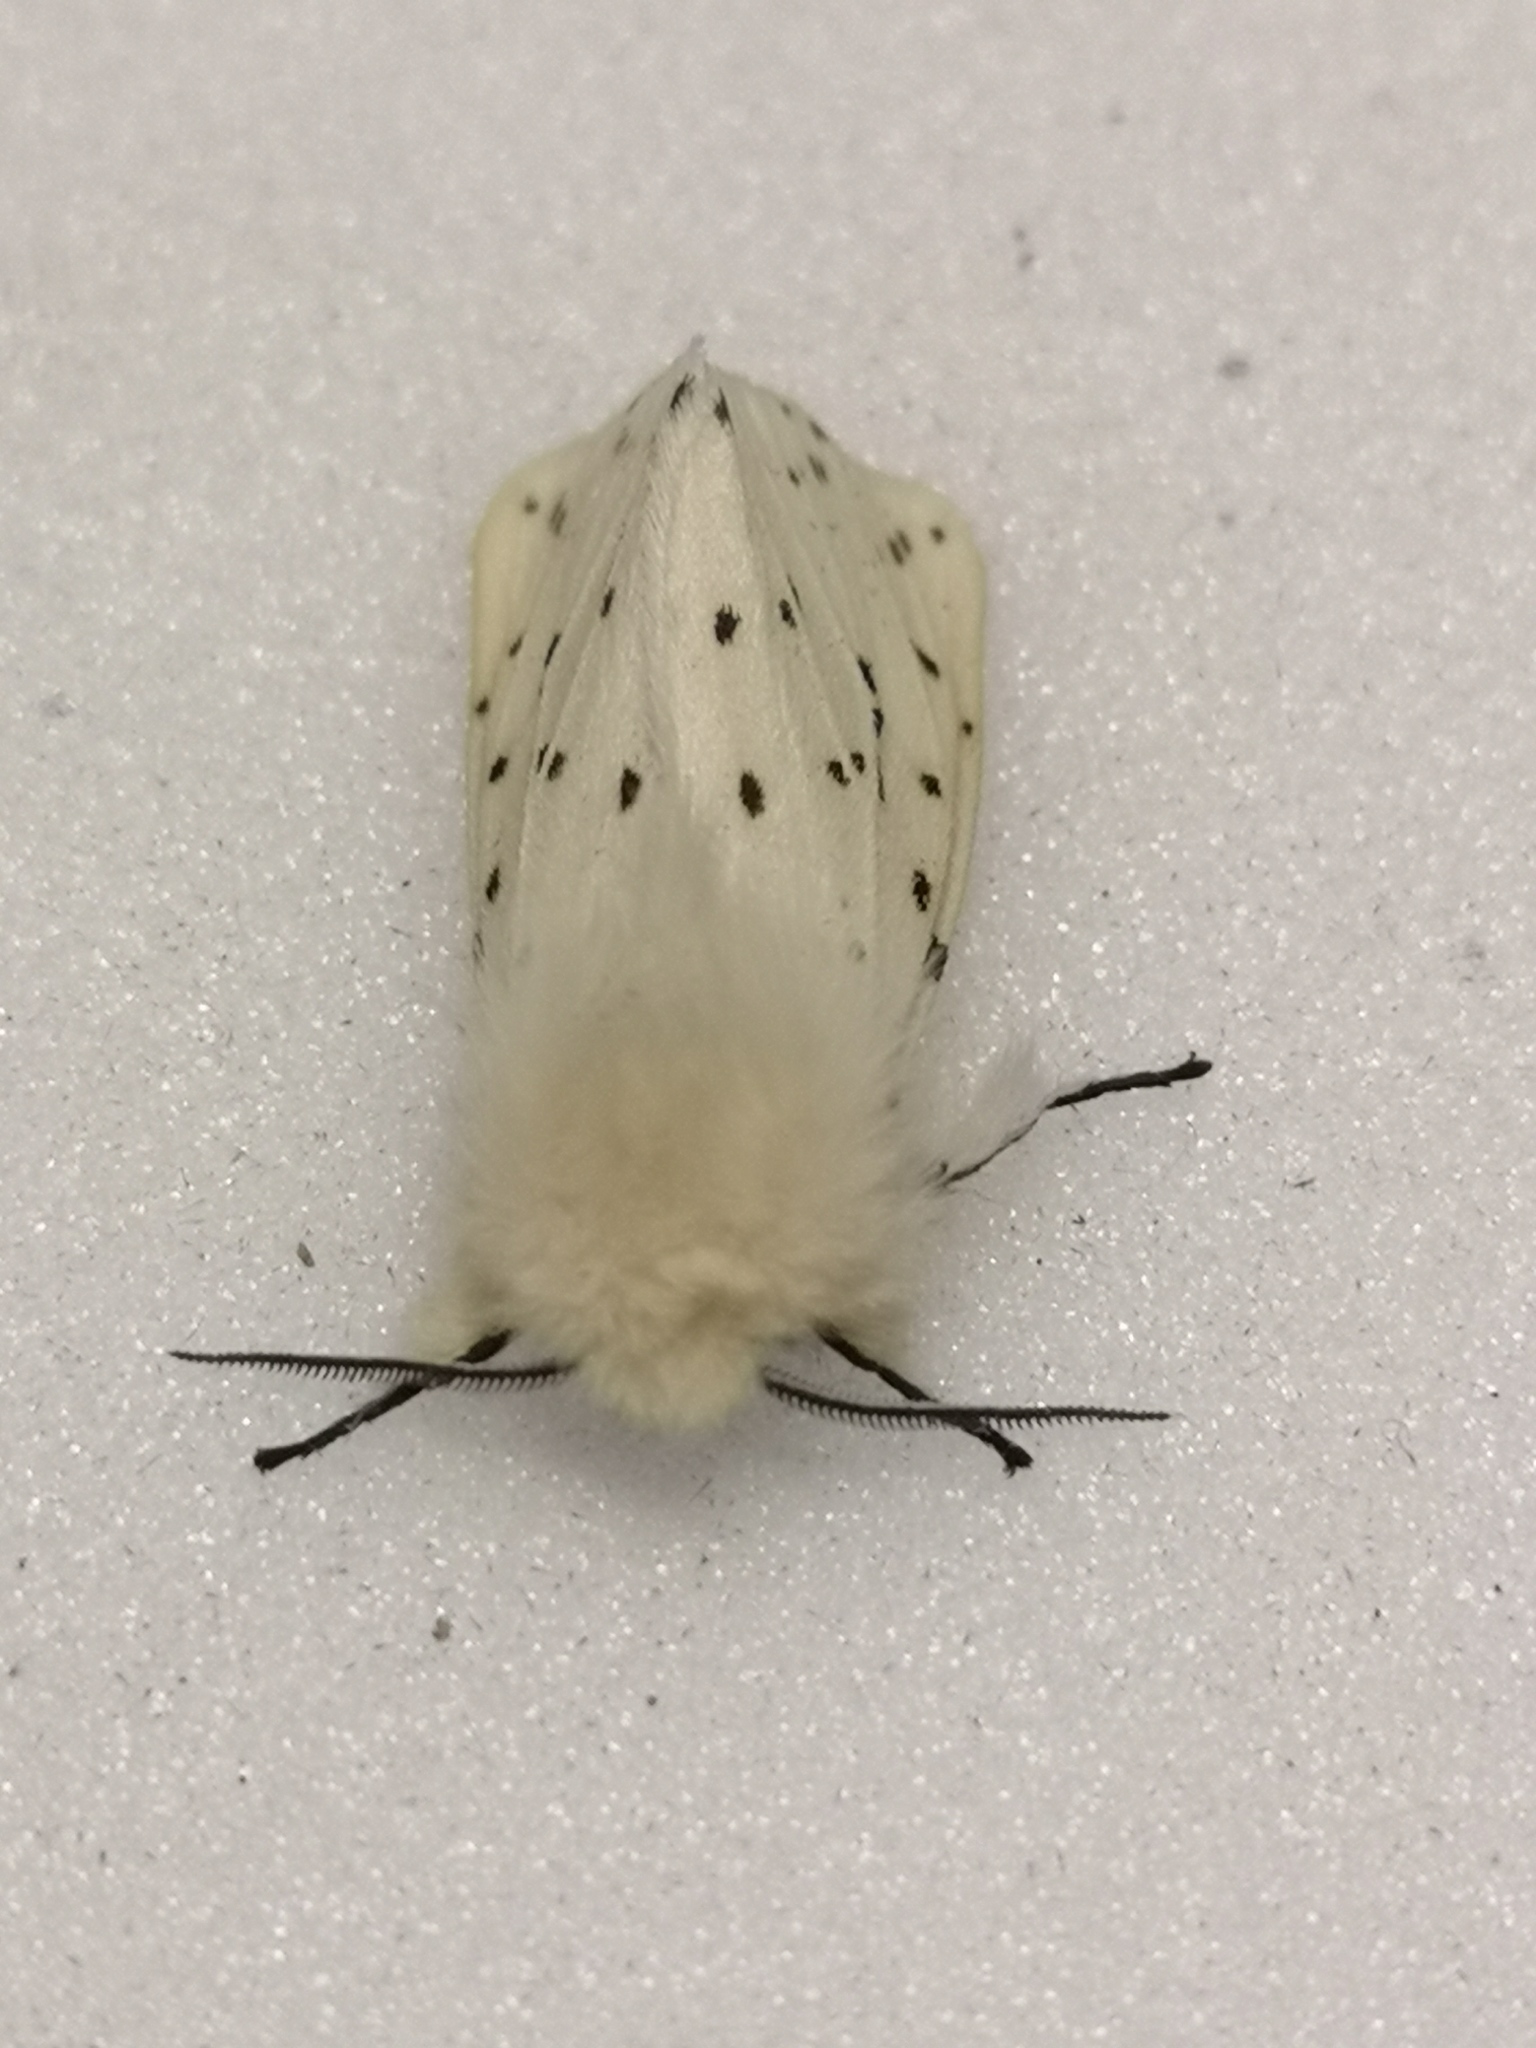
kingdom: Animalia
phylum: Arthropoda
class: Insecta
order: Lepidoptera
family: Erebidae
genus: Spilosoma
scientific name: Spilosoma lubricipeda
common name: White ermine
